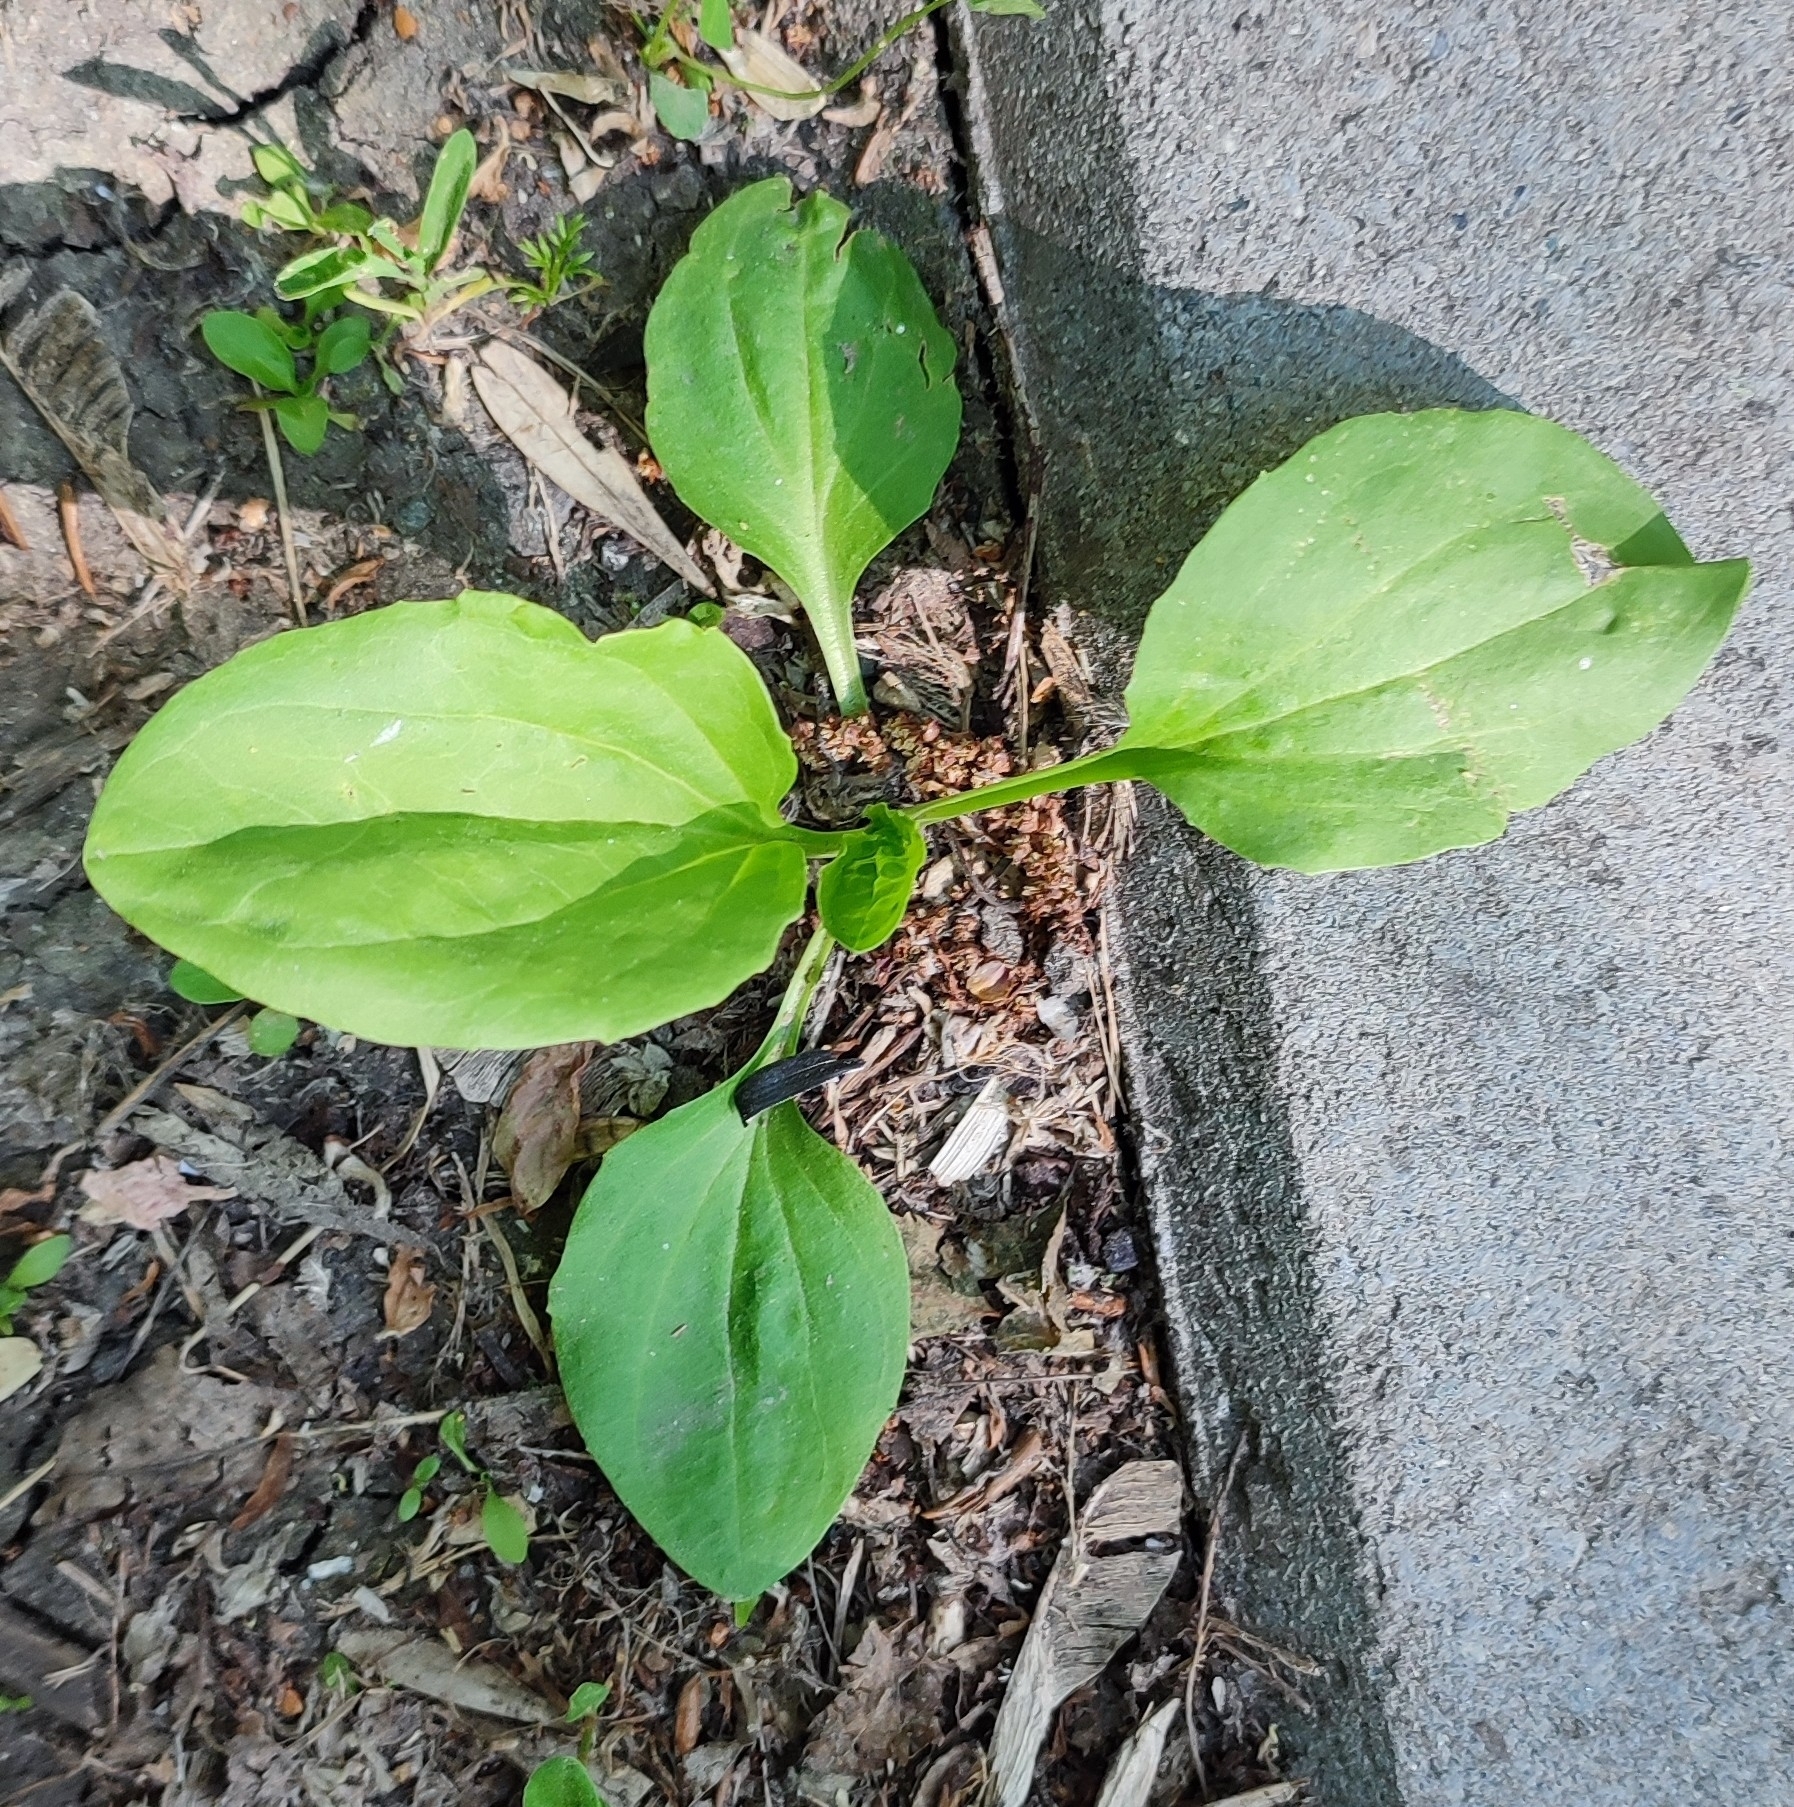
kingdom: Plantae
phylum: Tracheophyta
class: Magnoliopsida
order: Lamiales
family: Plantaginaceae
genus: Plantago
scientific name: Plantago major
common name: Common plantain
